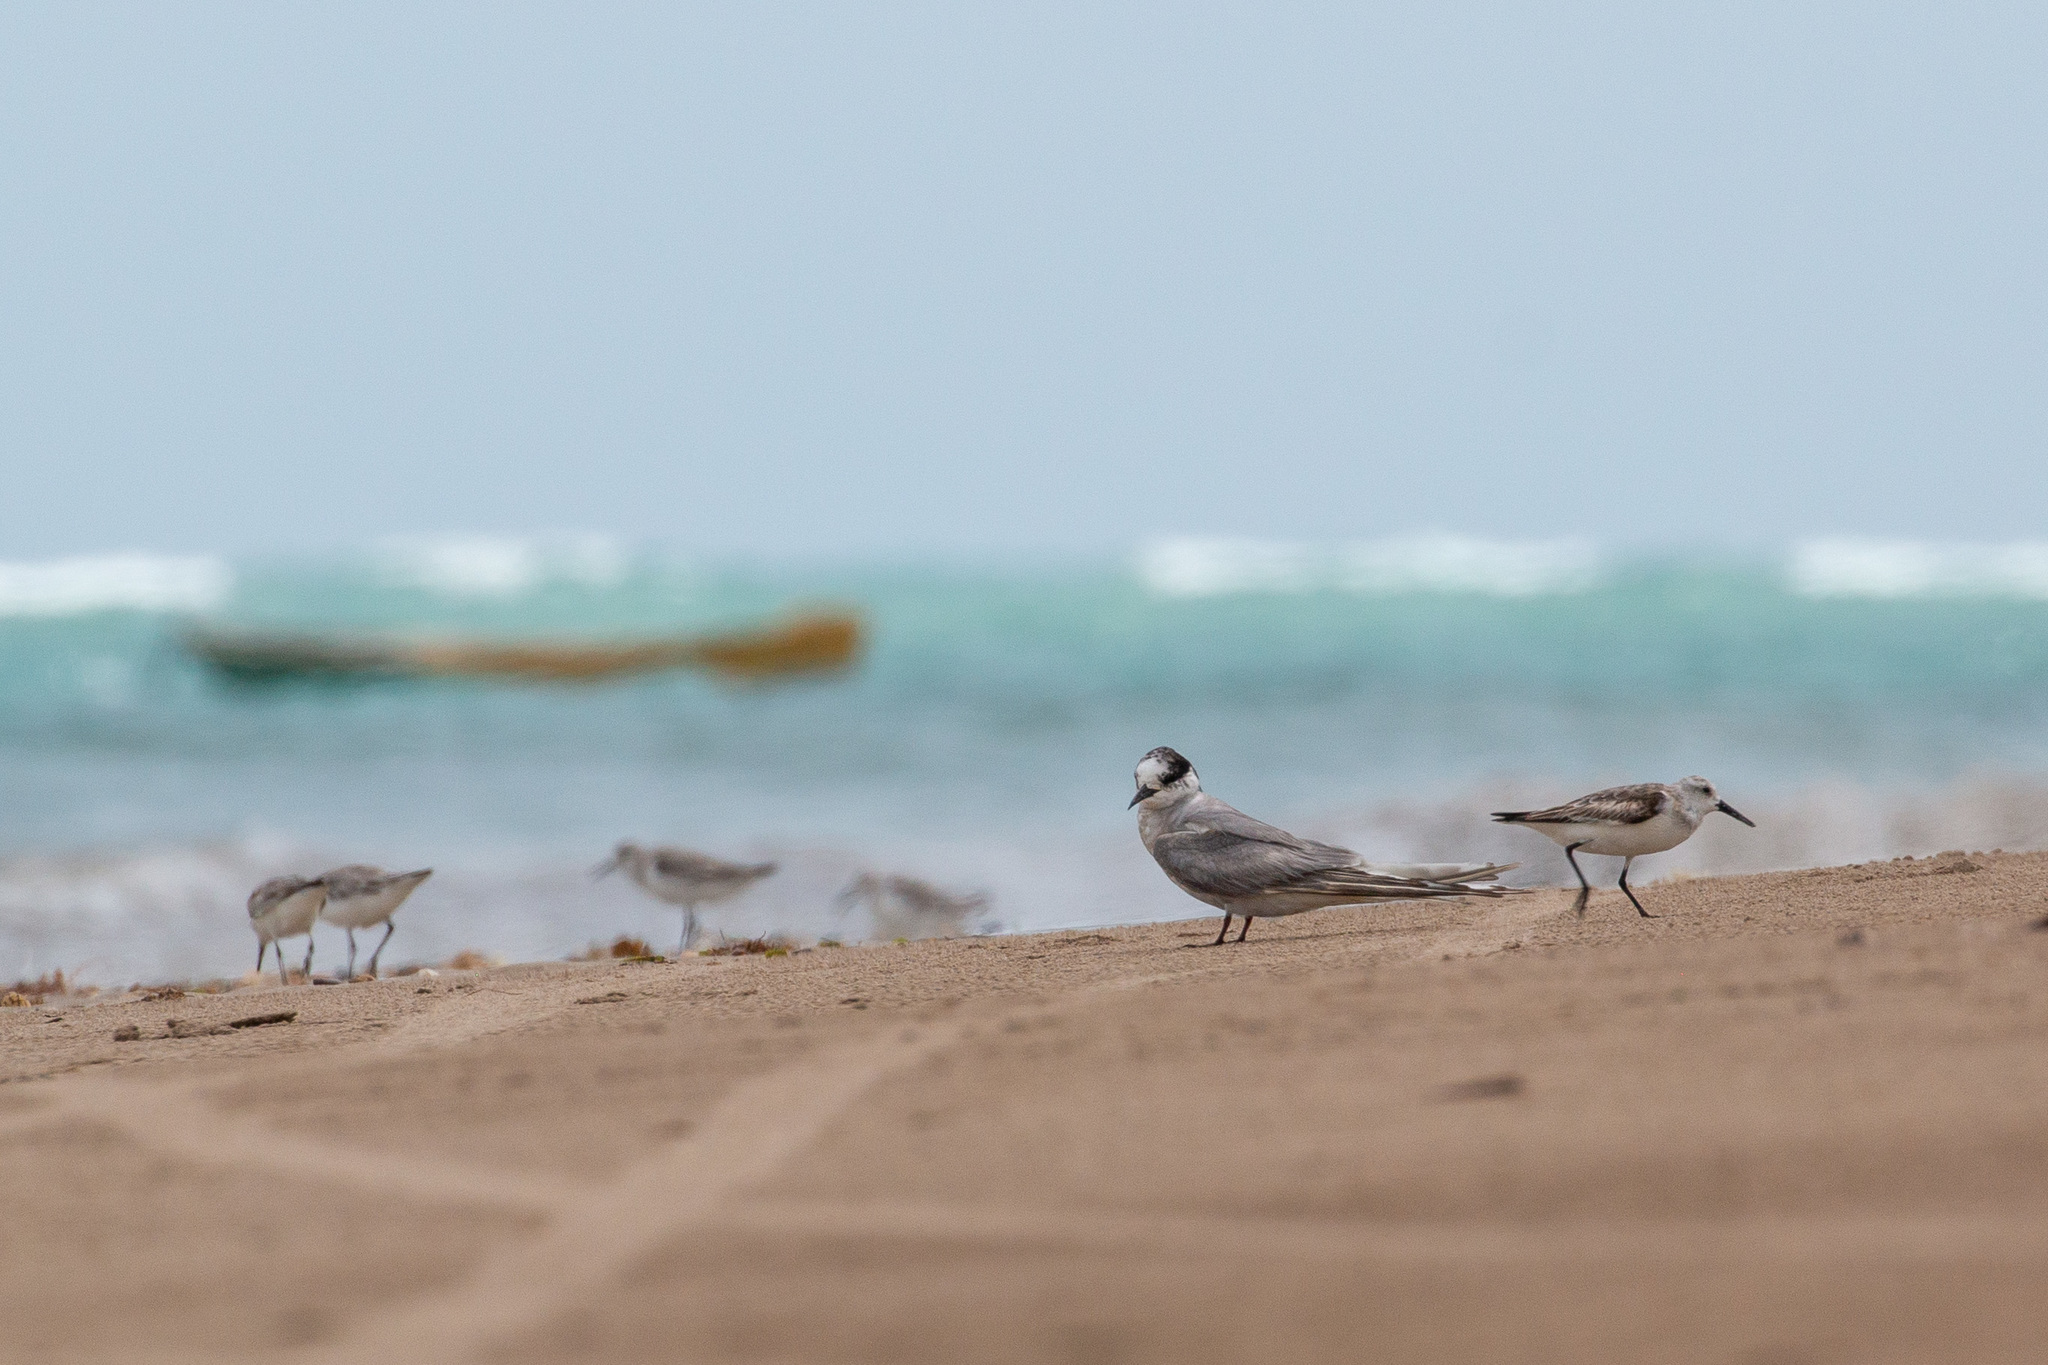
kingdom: Animalia
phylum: Chordata
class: Aves
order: Charadriiformes
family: Laridae
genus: Sterna
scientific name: Sterna hirundo
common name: Common tern
